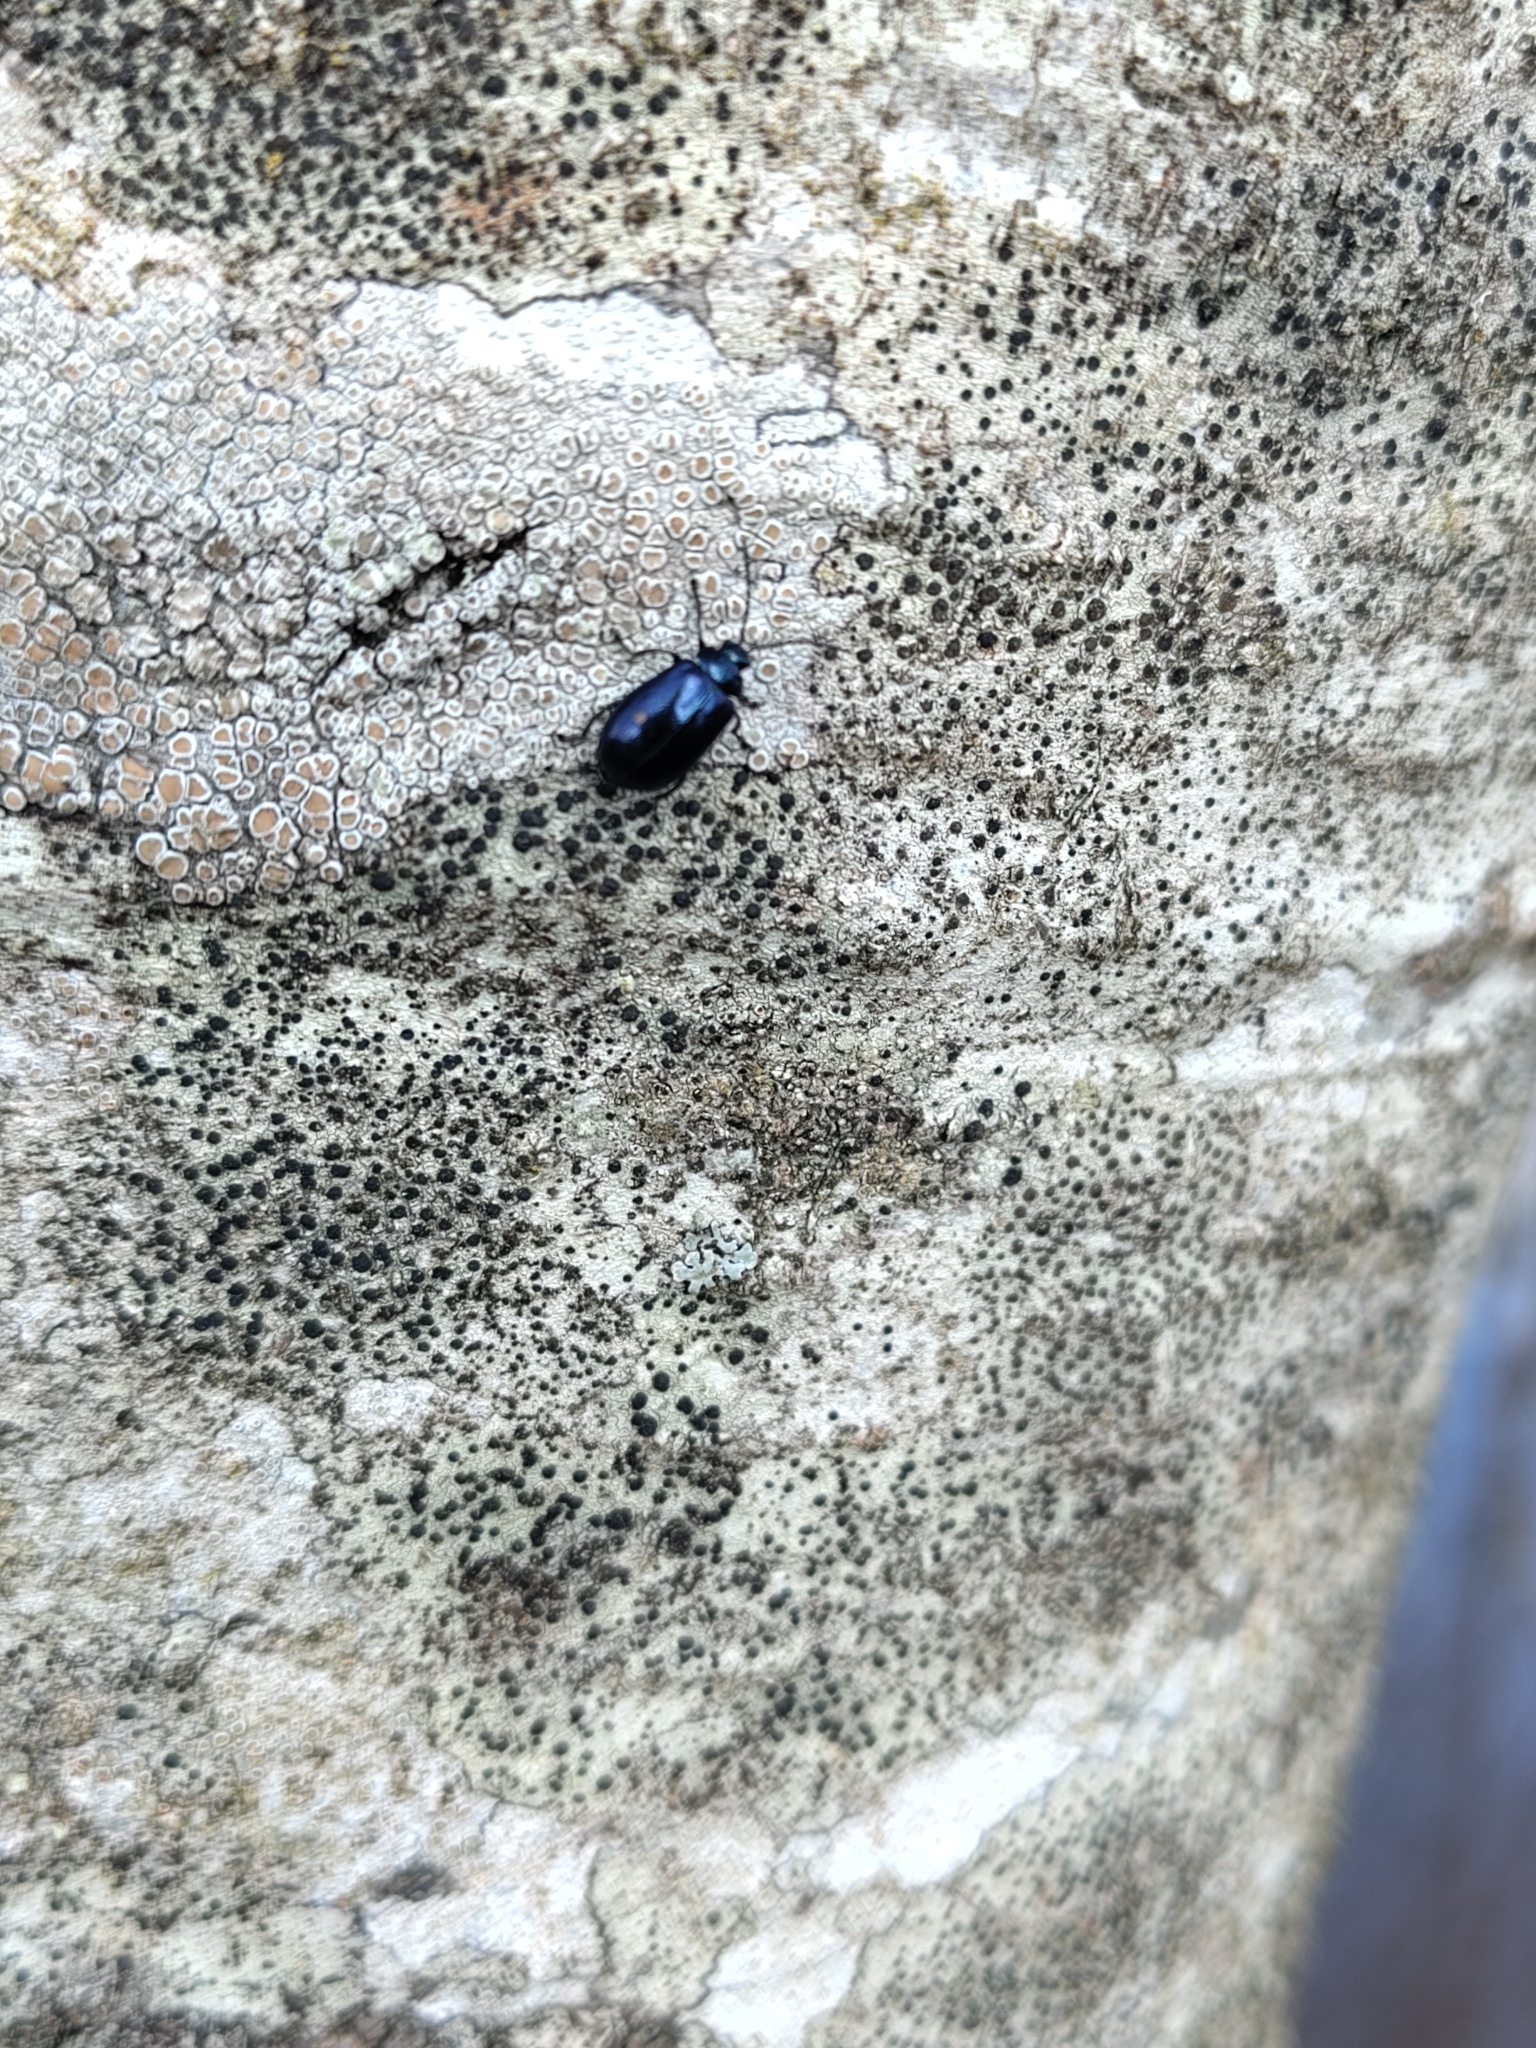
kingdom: Animalia
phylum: Arthropoda
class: Insecta
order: Coleoptera
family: Chrysomelidae
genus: Agelastica
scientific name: Agelastica alni
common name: Alder leaf beetle
